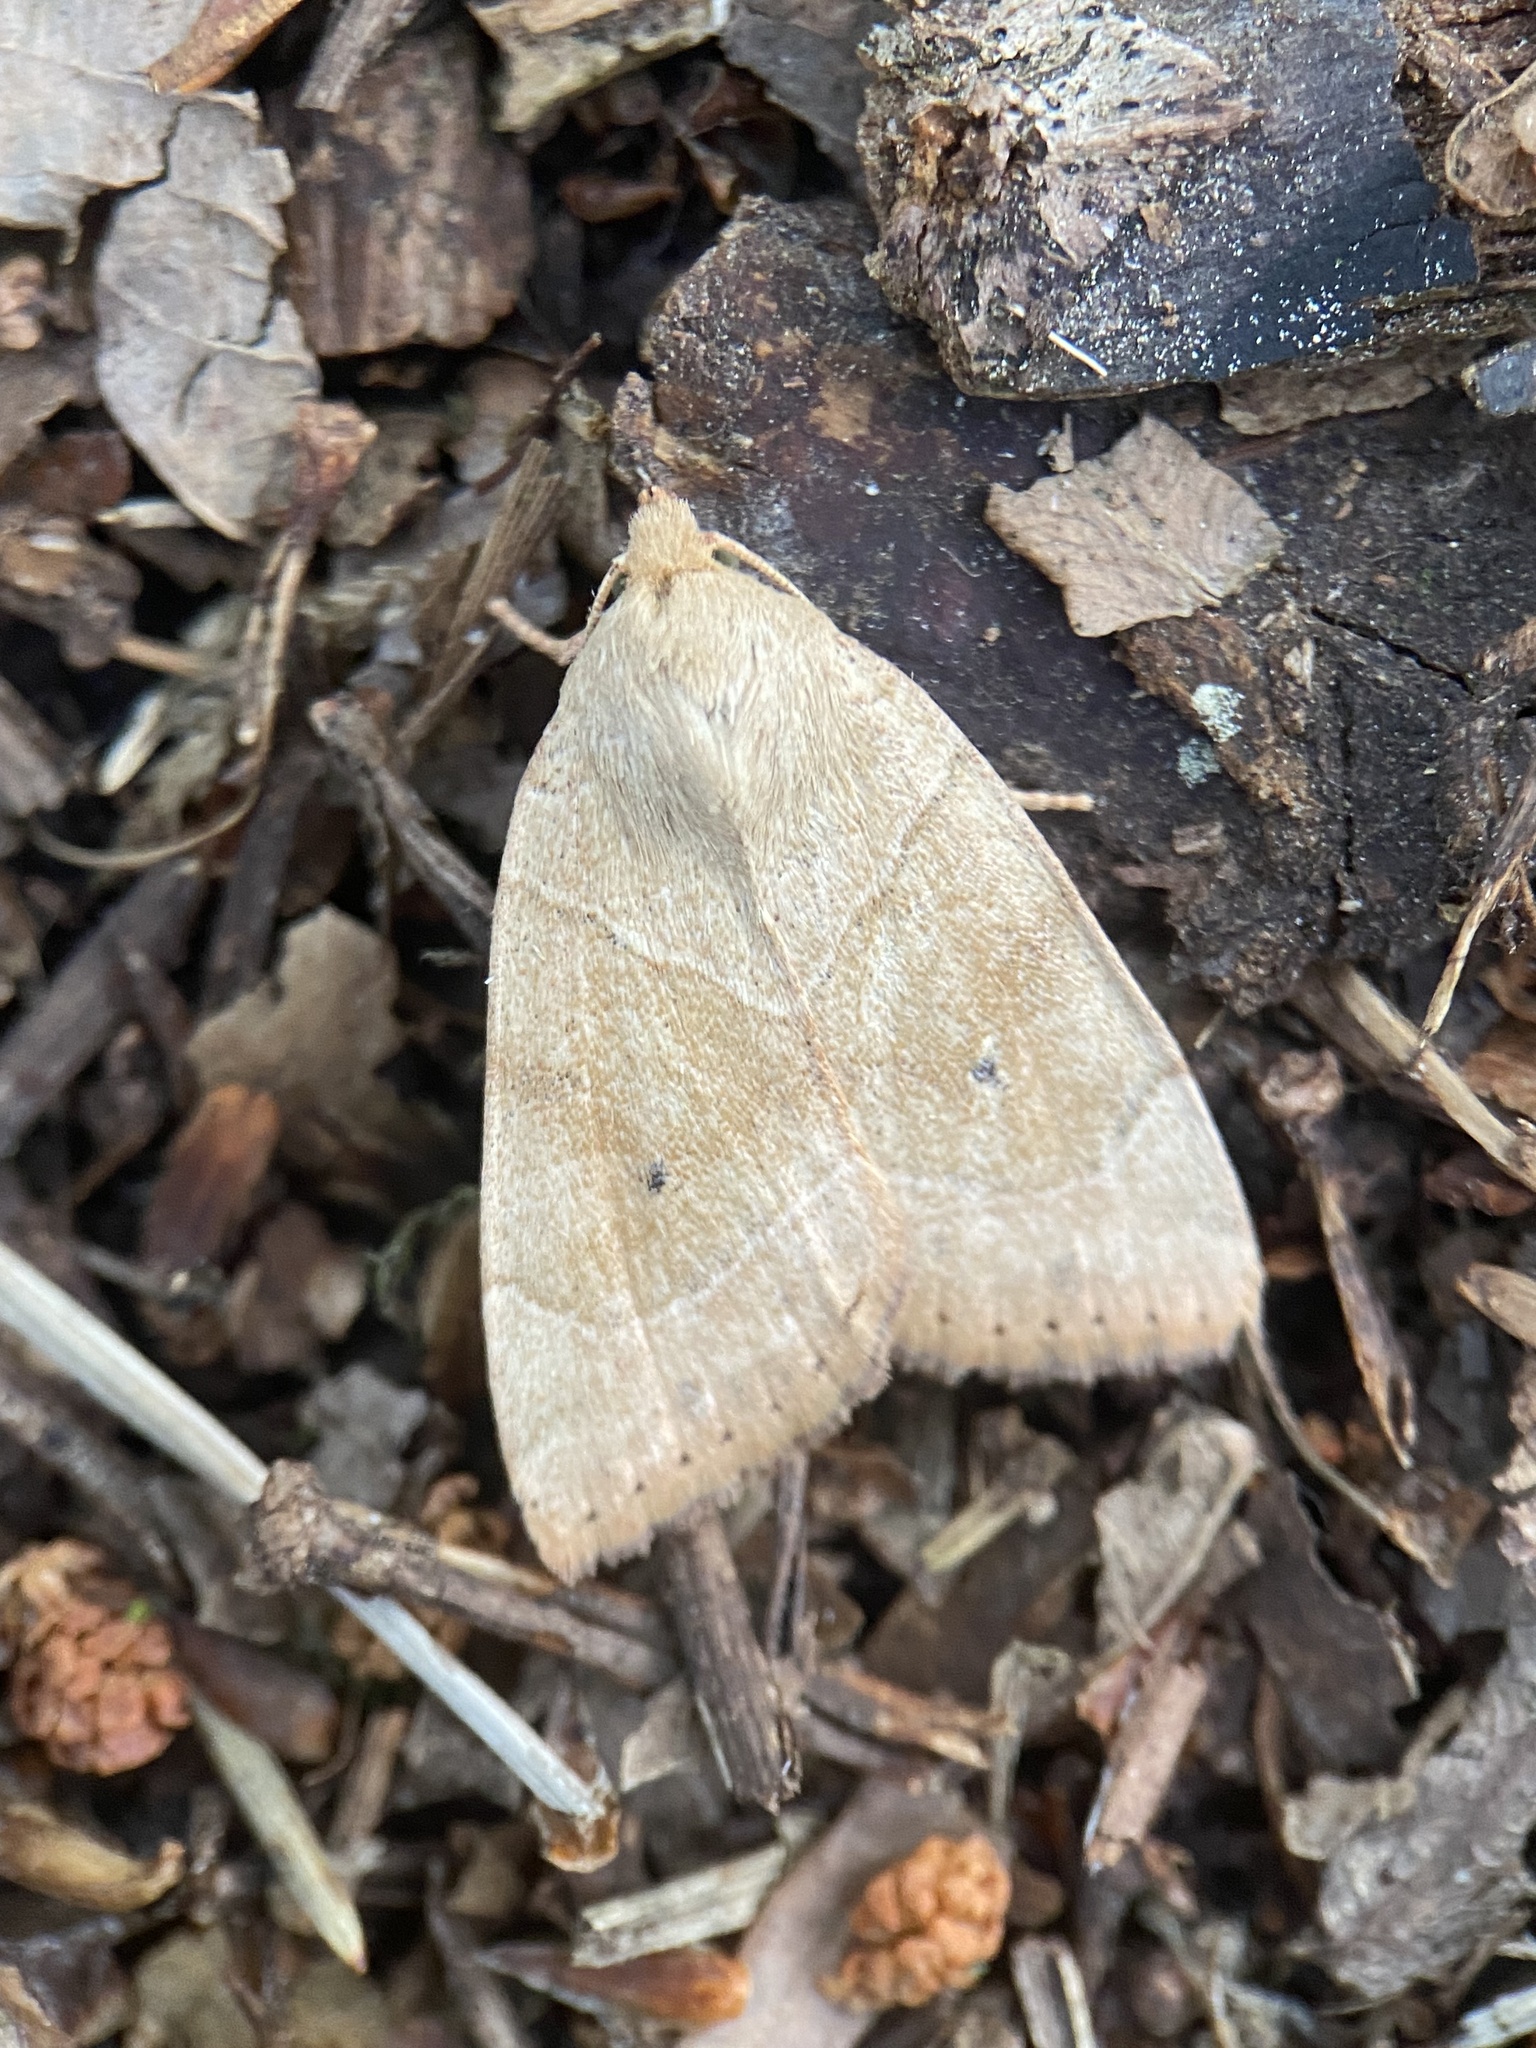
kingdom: Animalia
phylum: Arthropoda
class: Insecta
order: Lepidoptera
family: Noctuidae
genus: Cosmia
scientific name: Cosmia trapezina
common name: Dun-bar
